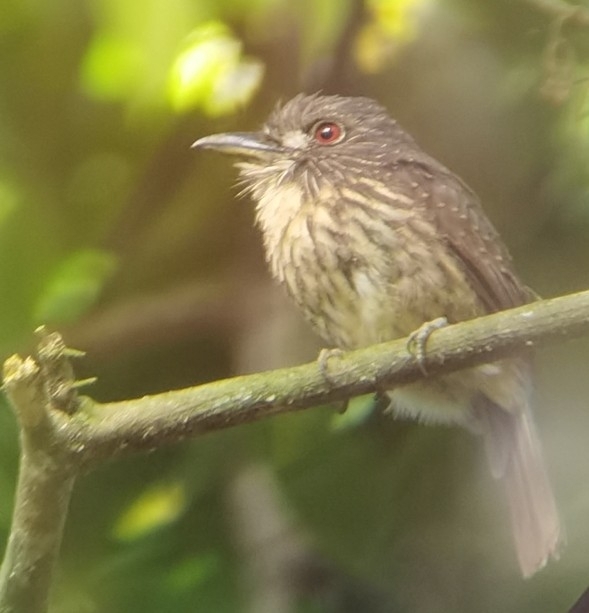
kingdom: Animalia
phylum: Chordata
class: Aves
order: Piciformes
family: Bucconidae
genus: Malacoptila
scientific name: Malacoptila panamensis
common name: White-whiskered puffbird
